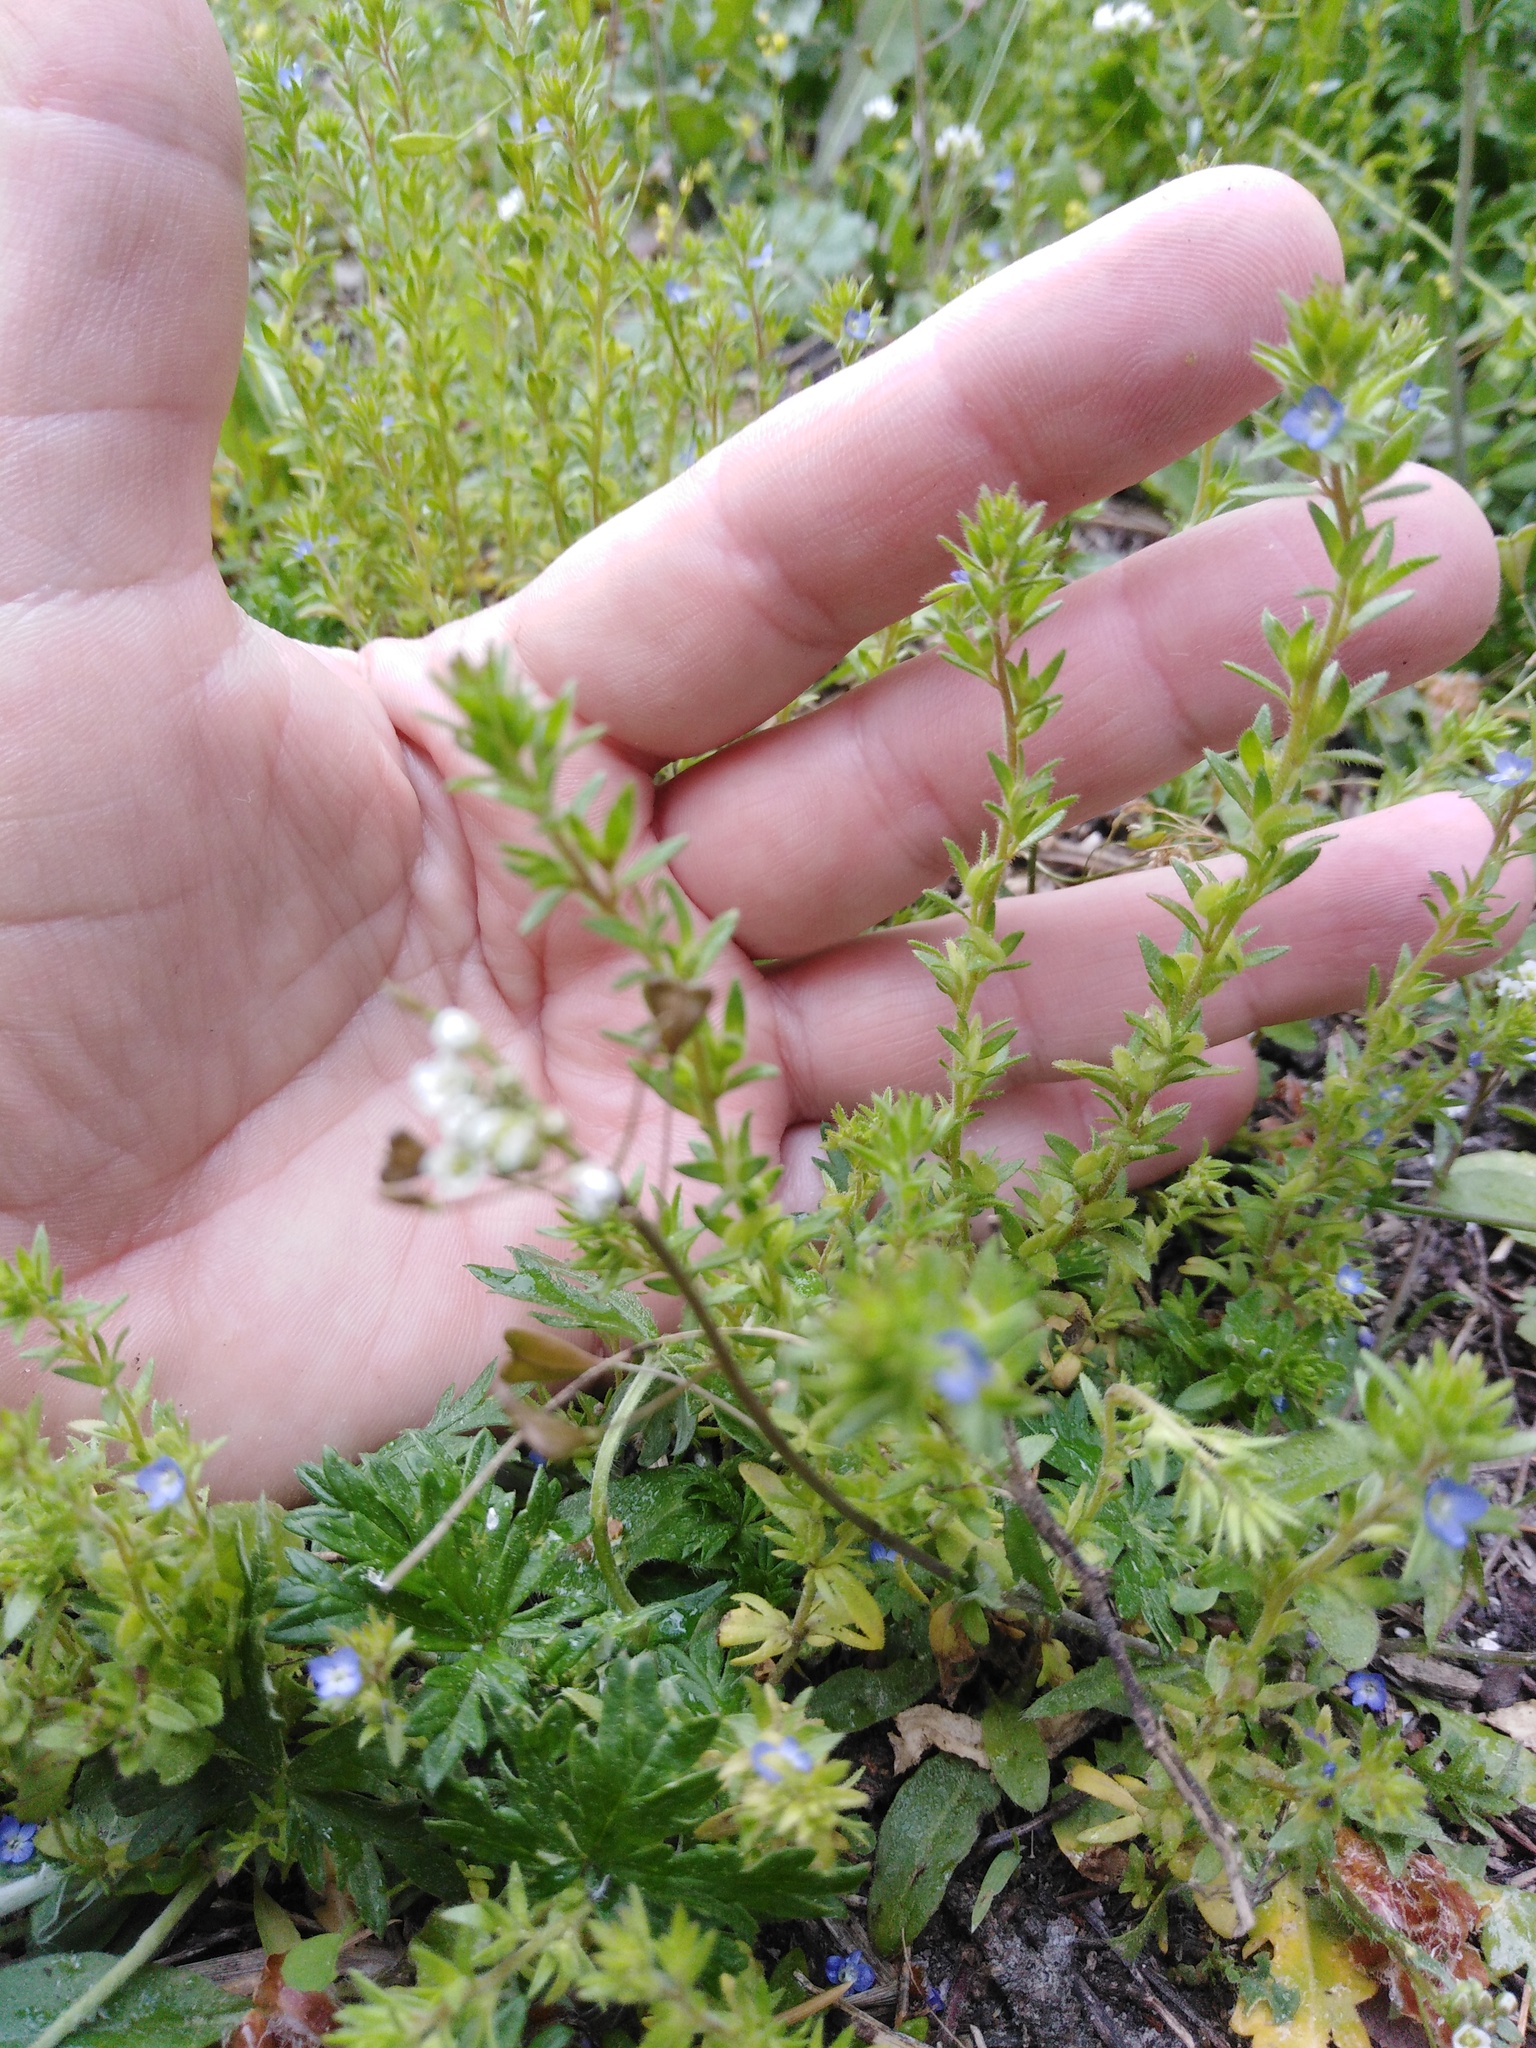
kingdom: Plantae
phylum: Tracheophyta
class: Magnoliopsida
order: Lamiales
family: Plantaginaceae
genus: Veronica
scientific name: Veronica verna
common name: Spring speedwell
